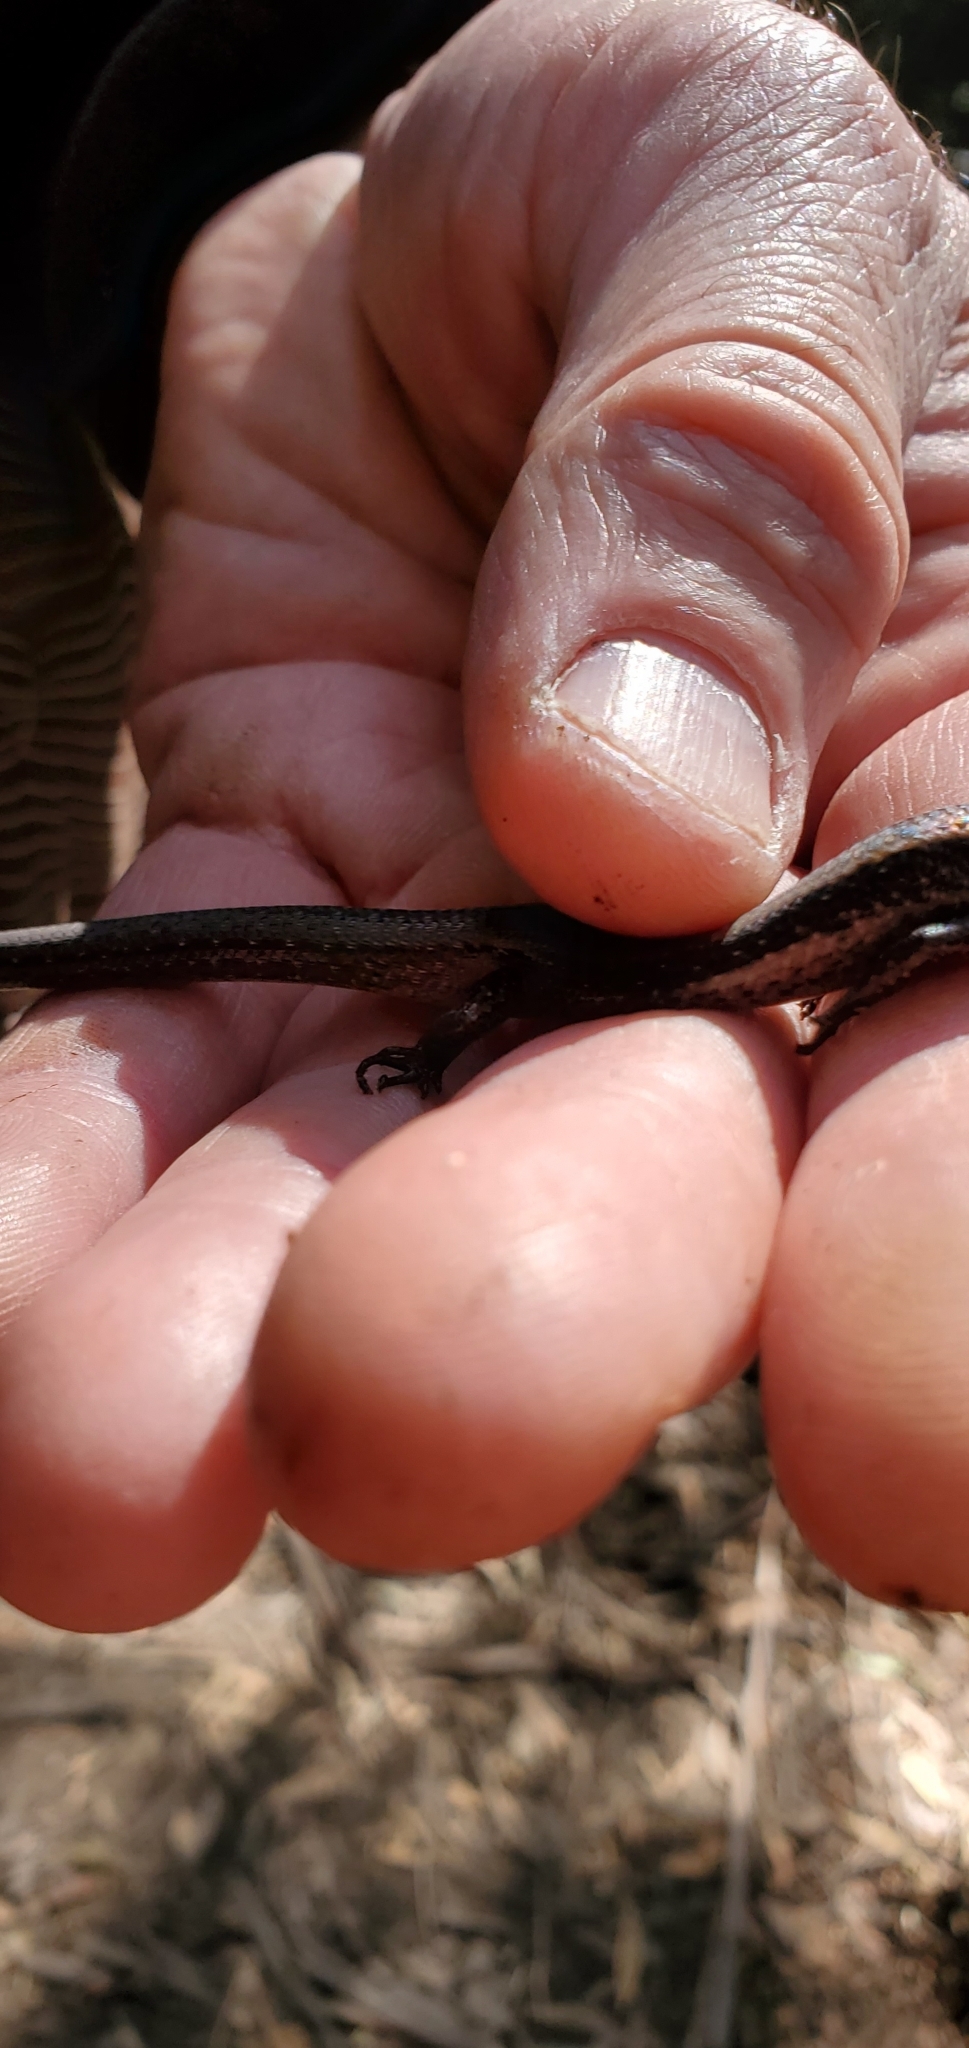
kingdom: Animalia
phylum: Chordata
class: Squamata
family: Scincidae
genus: Carinascincus
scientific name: Carinascincus metallicus
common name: Metallic cool-skink
